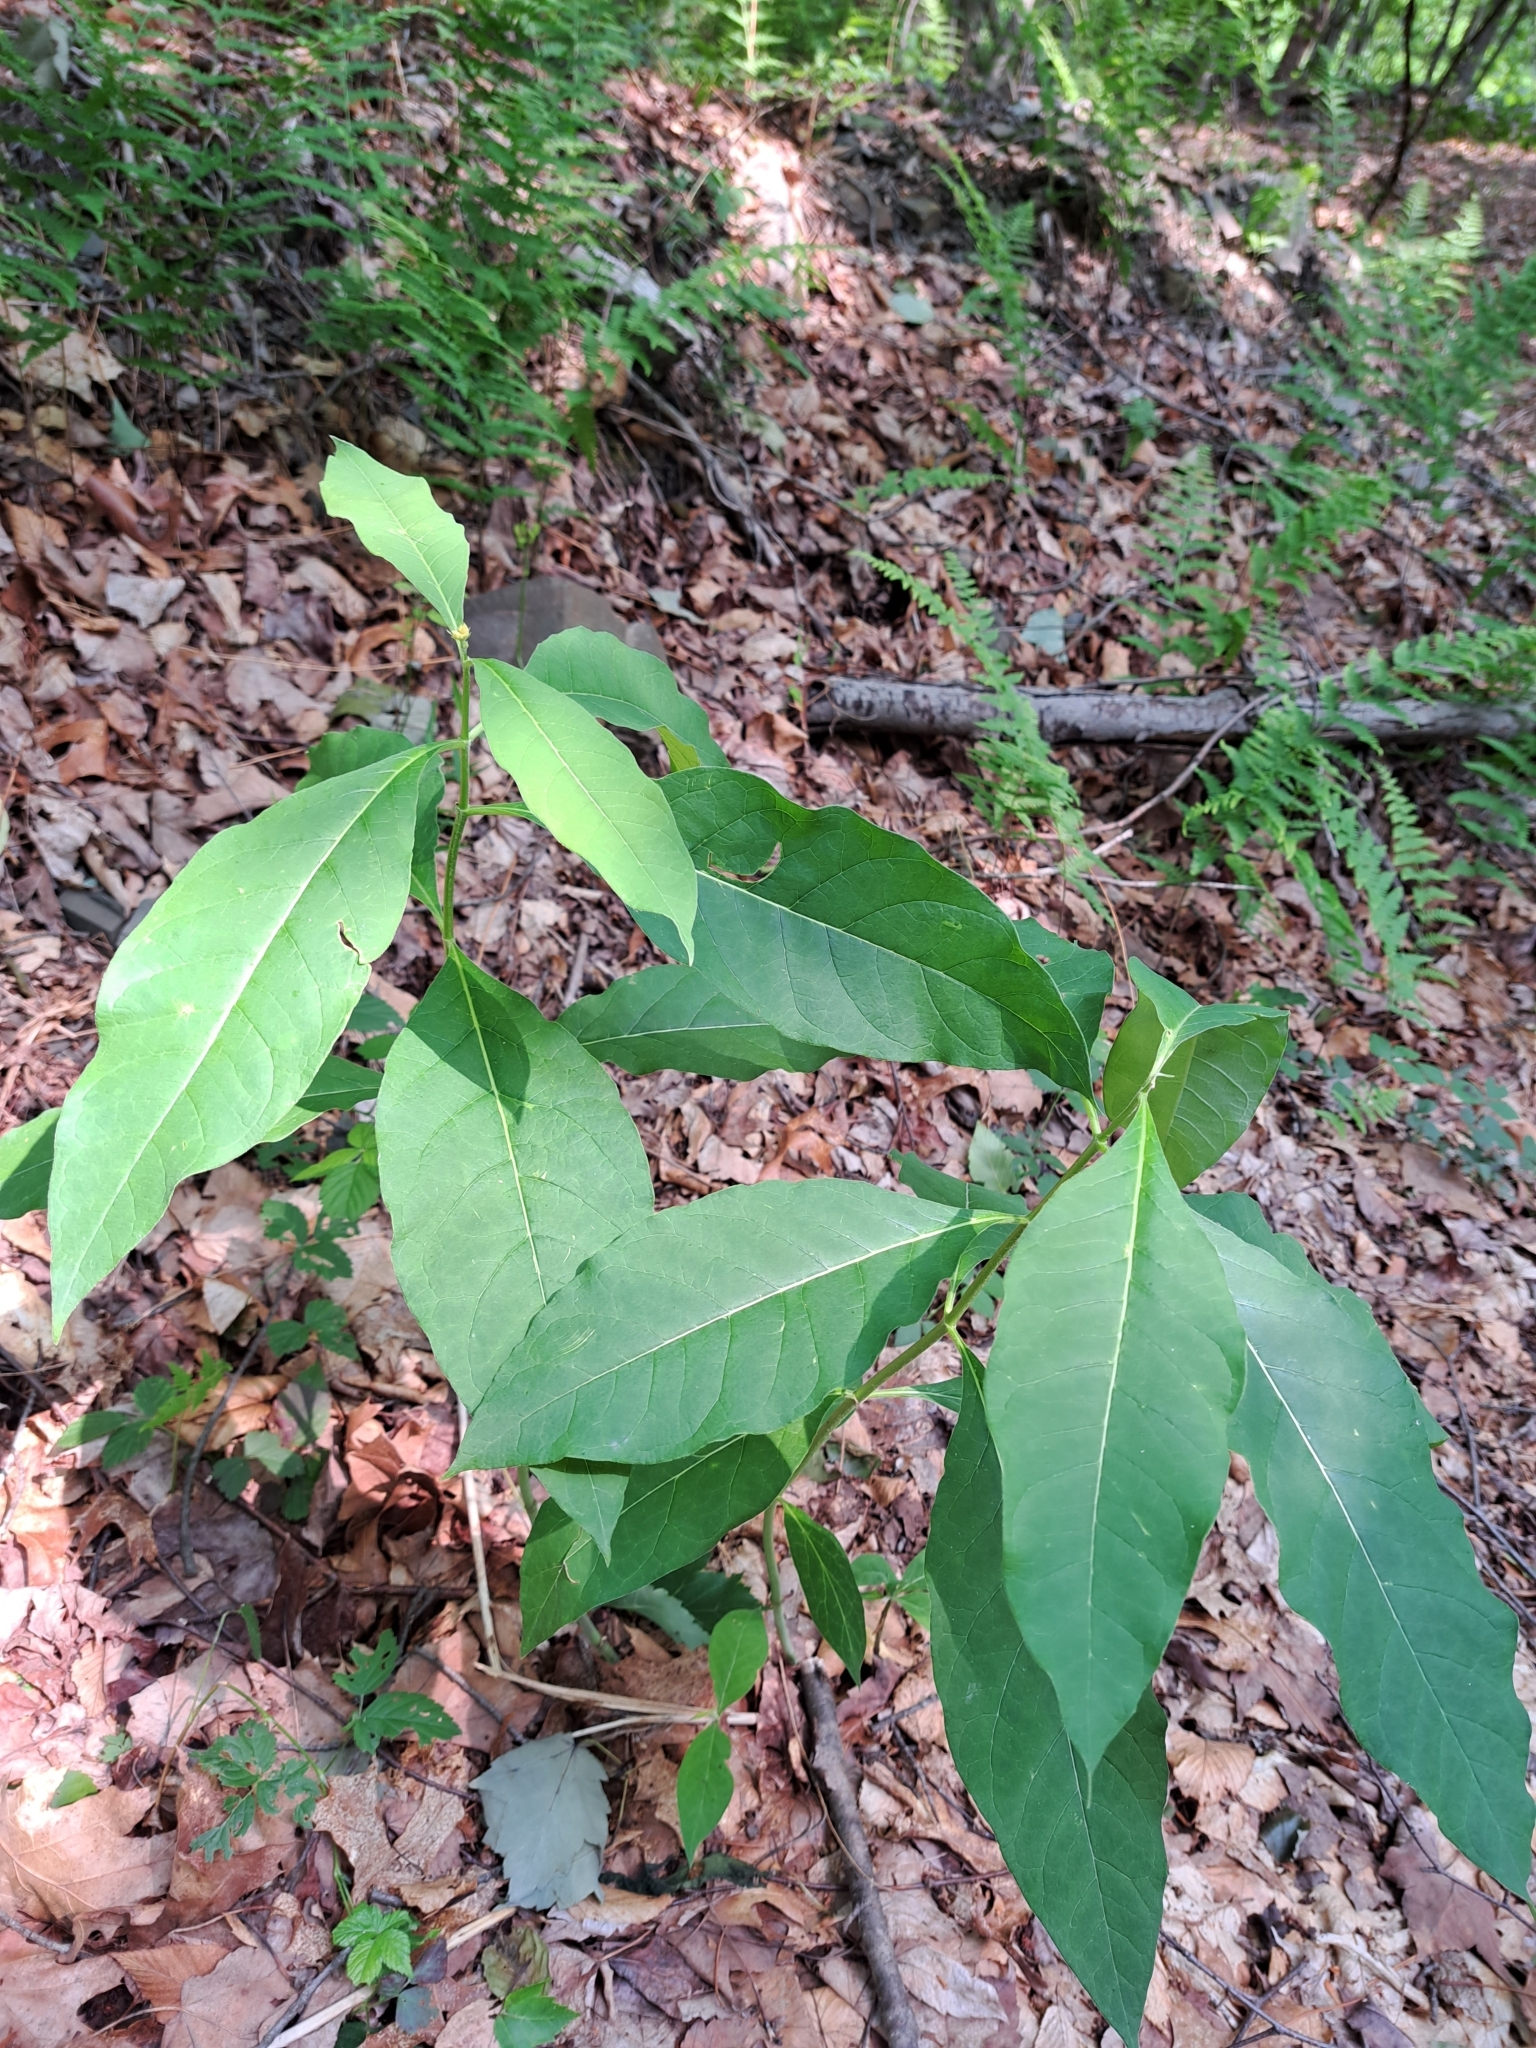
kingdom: Plantae
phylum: Tracheophyta
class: Magnoliopsida
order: Gentianales
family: Apocynaceae
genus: Asclepias
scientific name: Asclepias exaltata
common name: Poke milkweed
